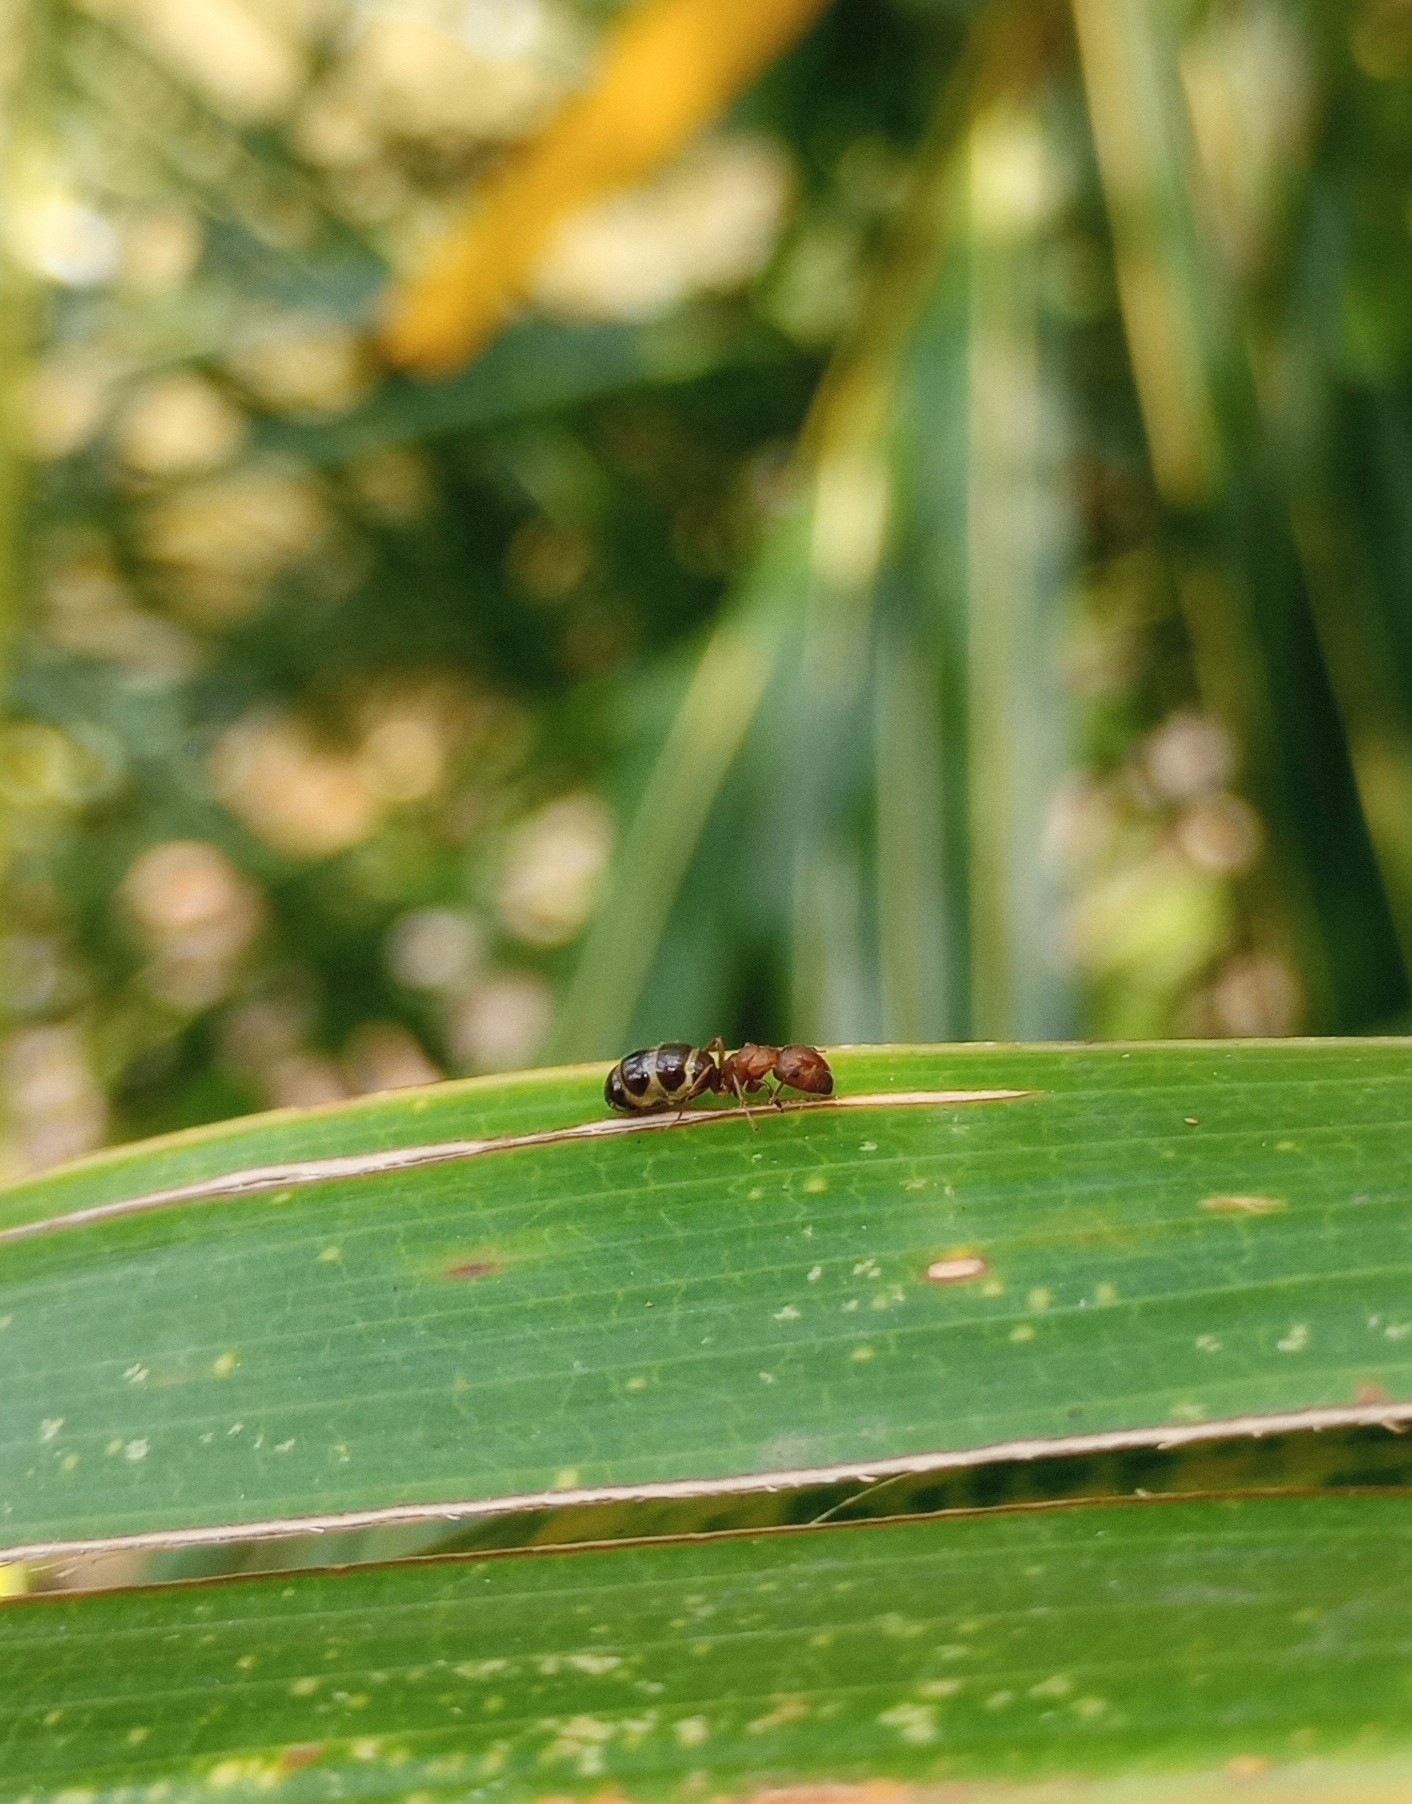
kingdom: Animalia
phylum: Arthropoda
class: Insecta
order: Hymenoptera
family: Formicidae
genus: Camponotus
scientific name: Camponotus nirvanae
